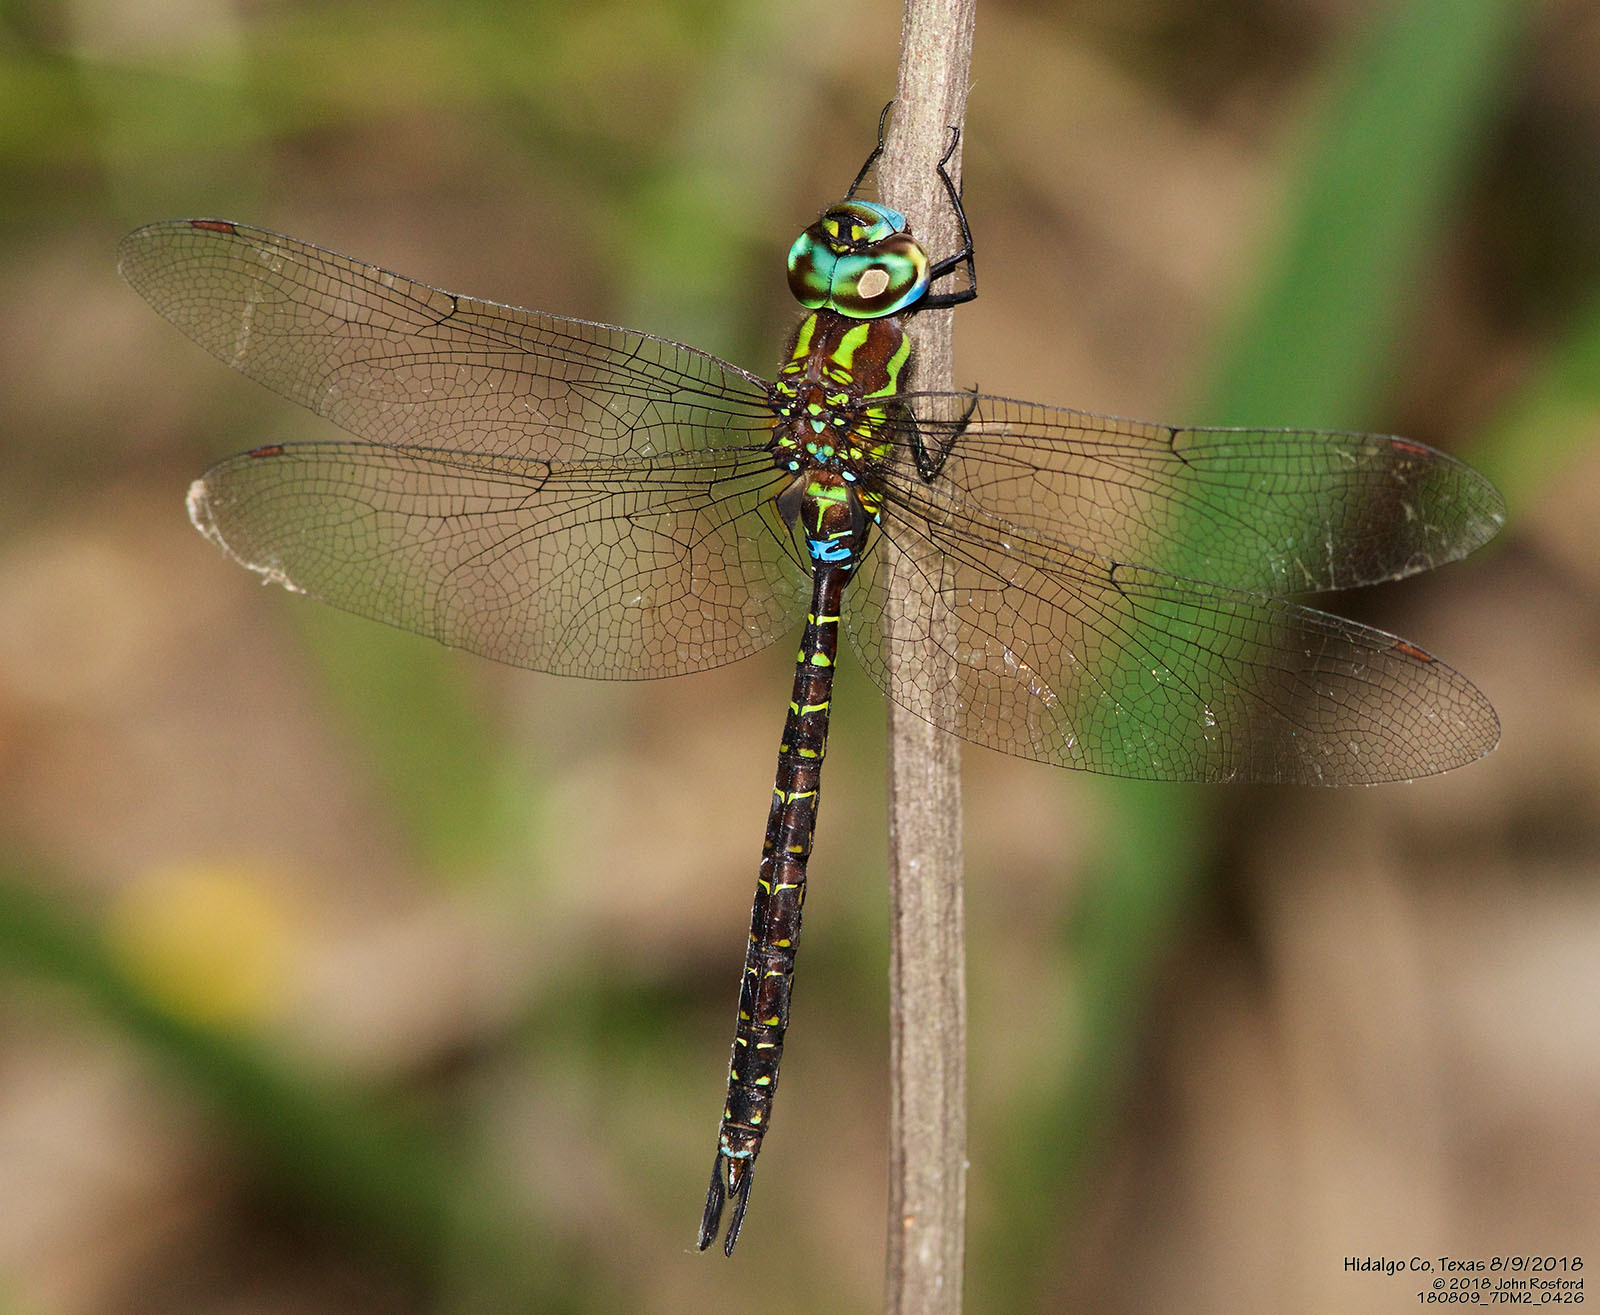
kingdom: Animalia
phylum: Arthropoda
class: Insecta
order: Odonata
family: Aeshnidae
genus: Rhionaeschna
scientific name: Rhionaeschna psilus
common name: Turquoise-tipped darner
